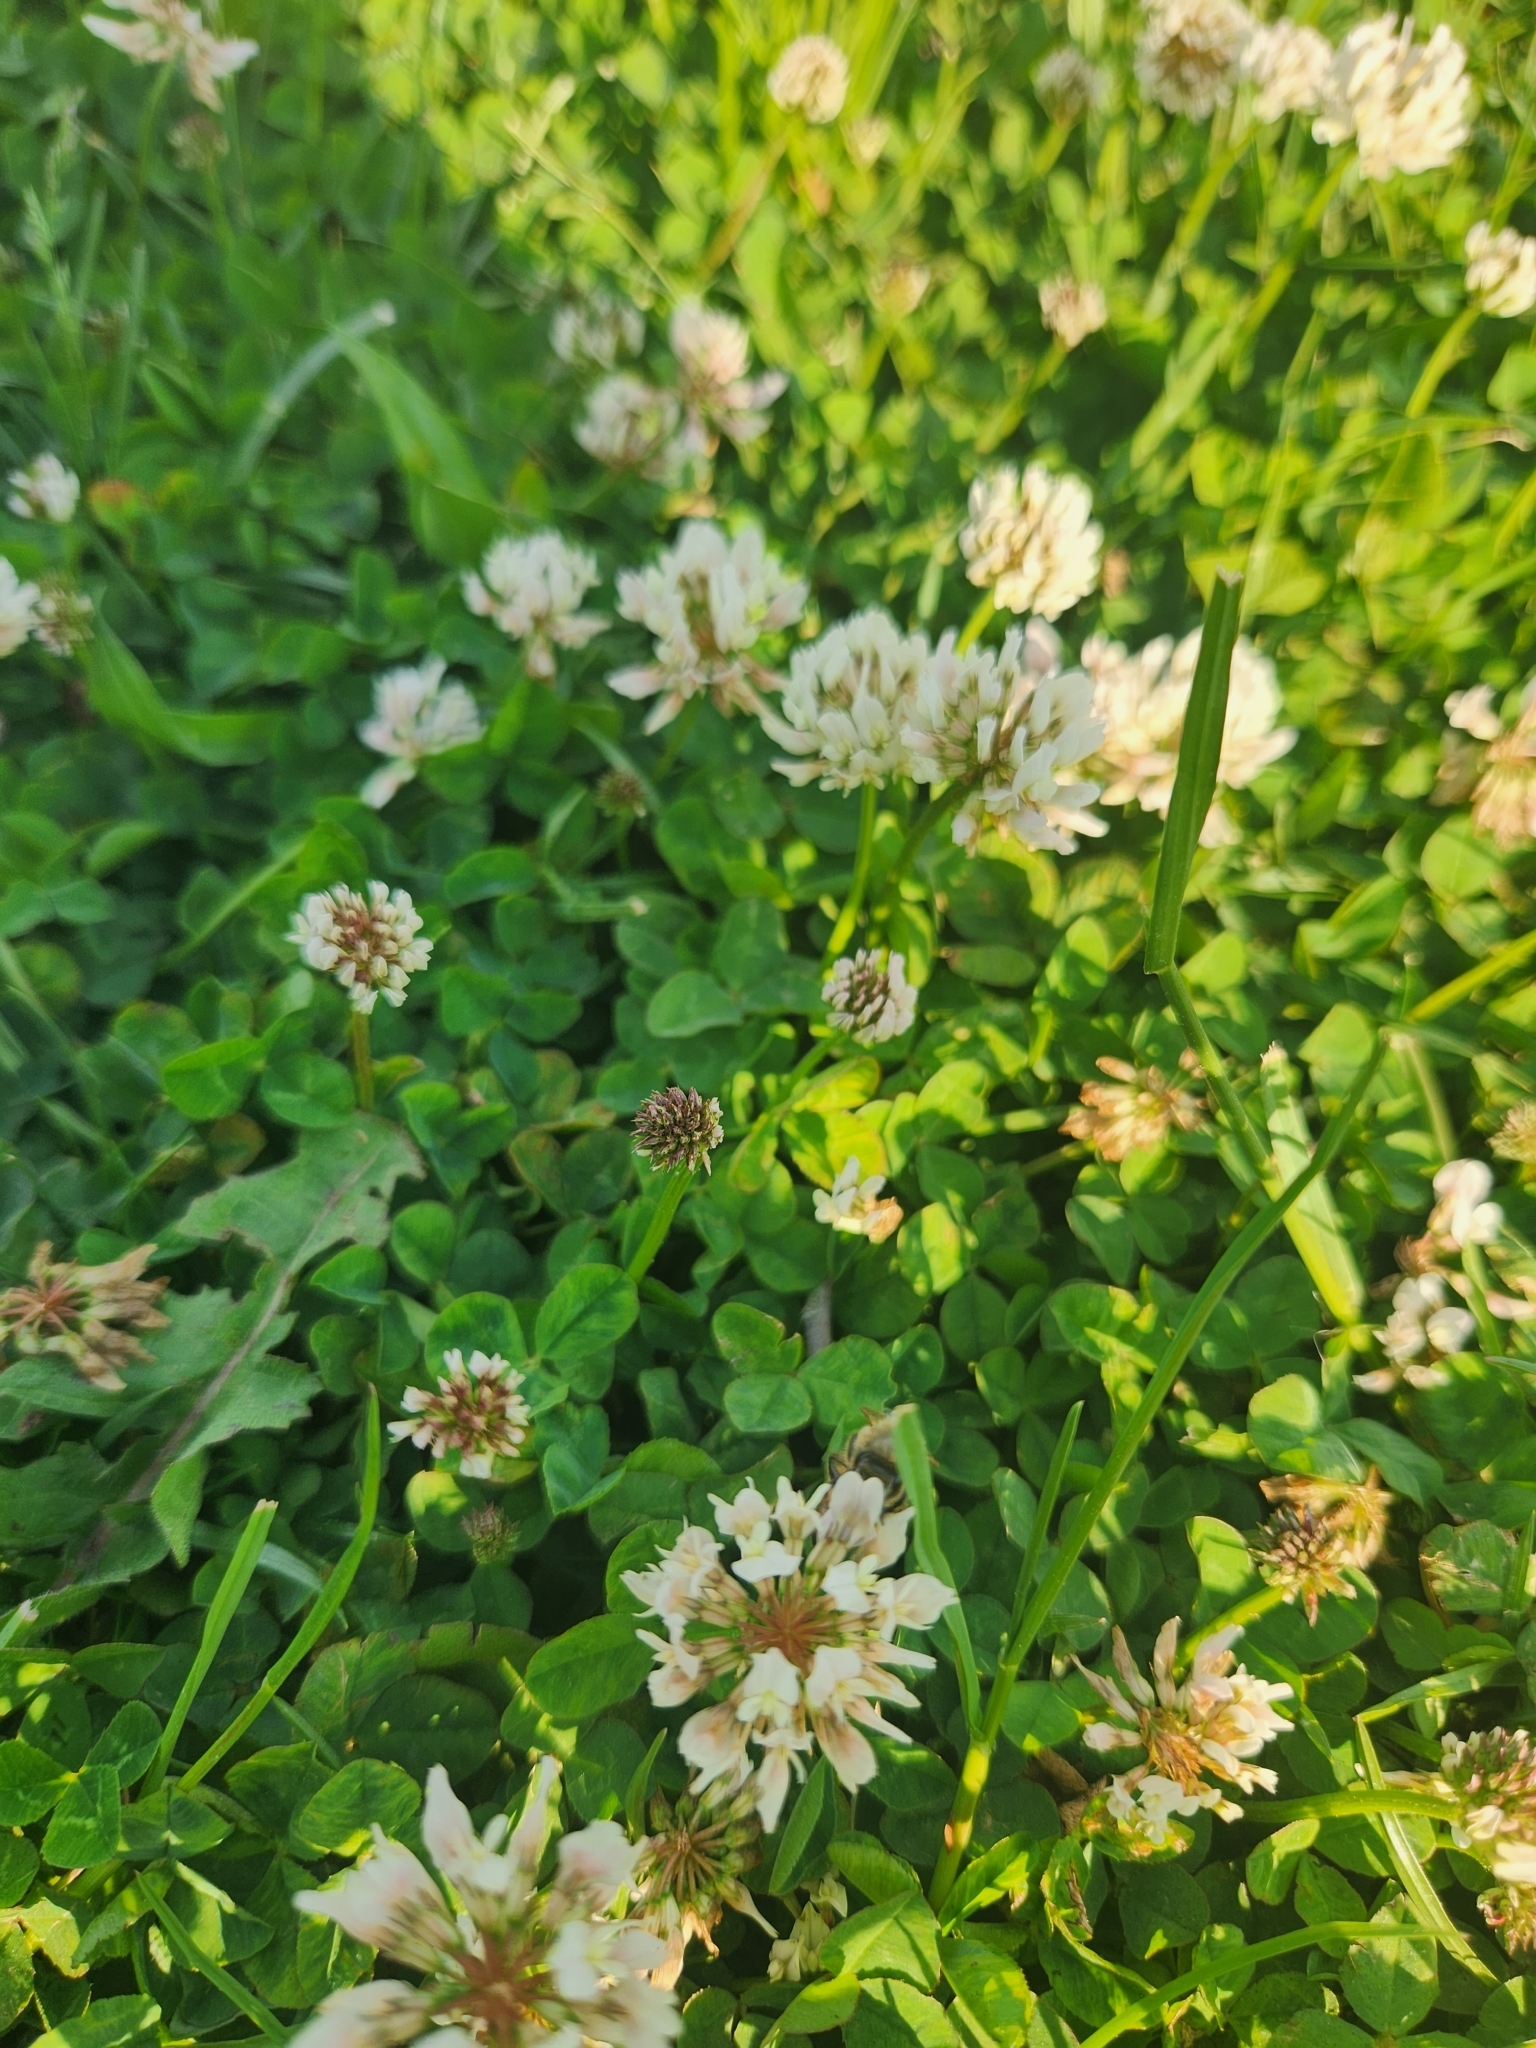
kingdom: Plantae
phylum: Tracheophyta
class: Magnoliopsida
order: Fabales
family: Fabaceae
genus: Trifolium
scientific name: Trifolium repens
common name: White clover
